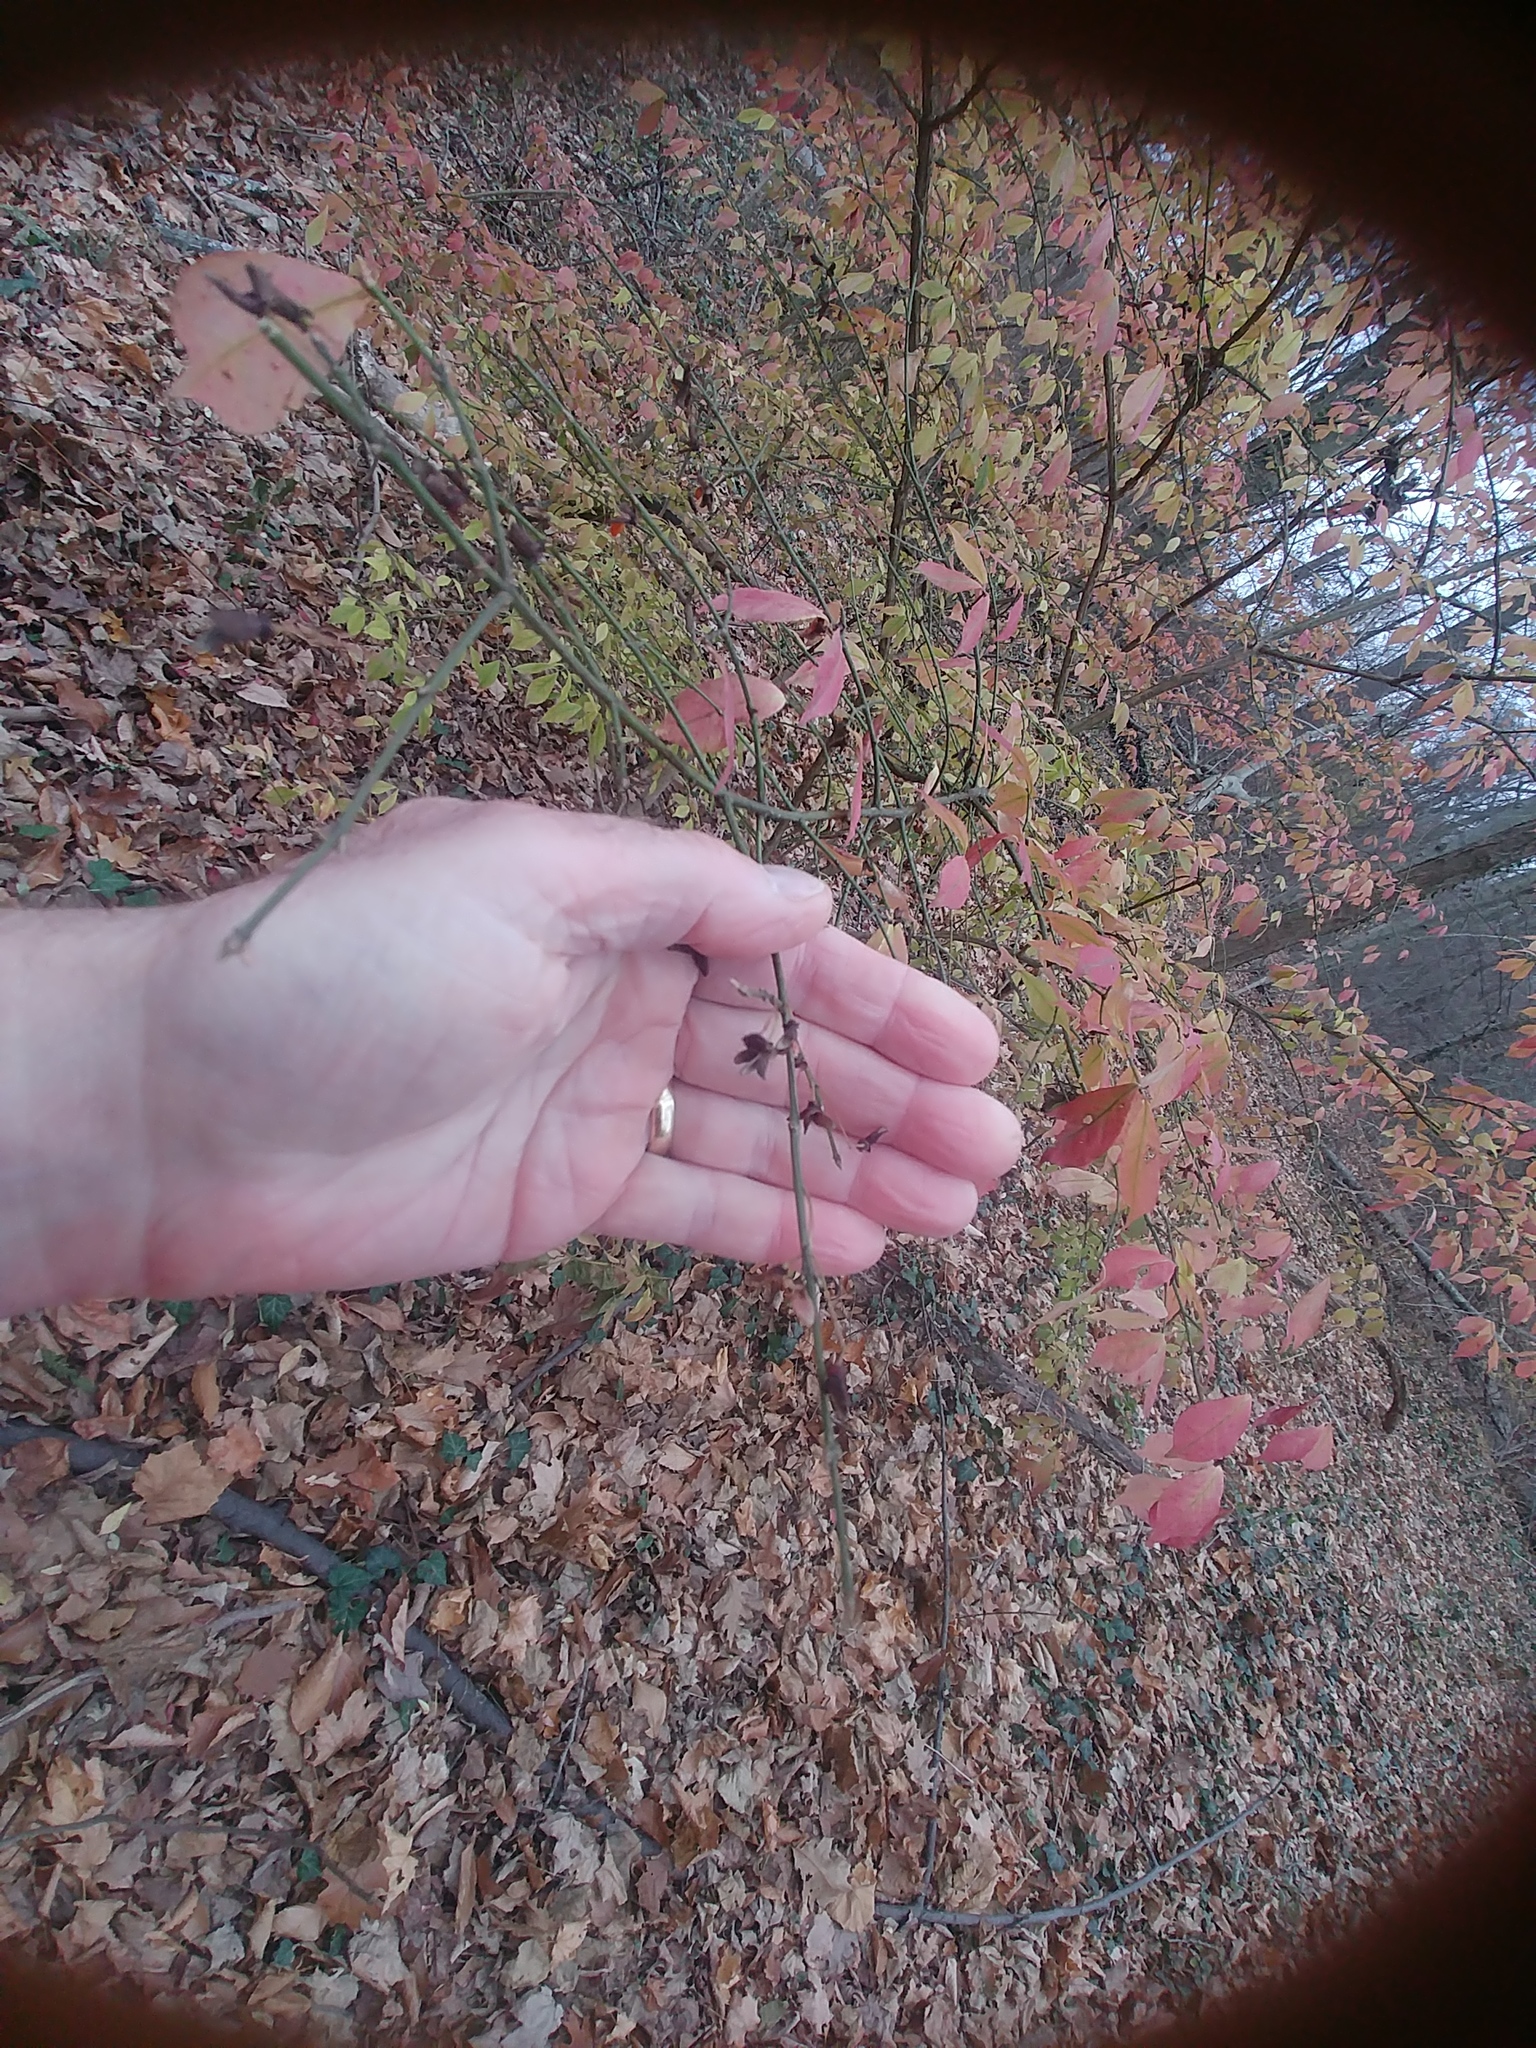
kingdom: Plantae
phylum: Tracheophyta
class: Magnoliopsida
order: Celastrales
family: Celastraceae
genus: Euonymus
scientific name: Euonymus alatus
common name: Winged euonymus
